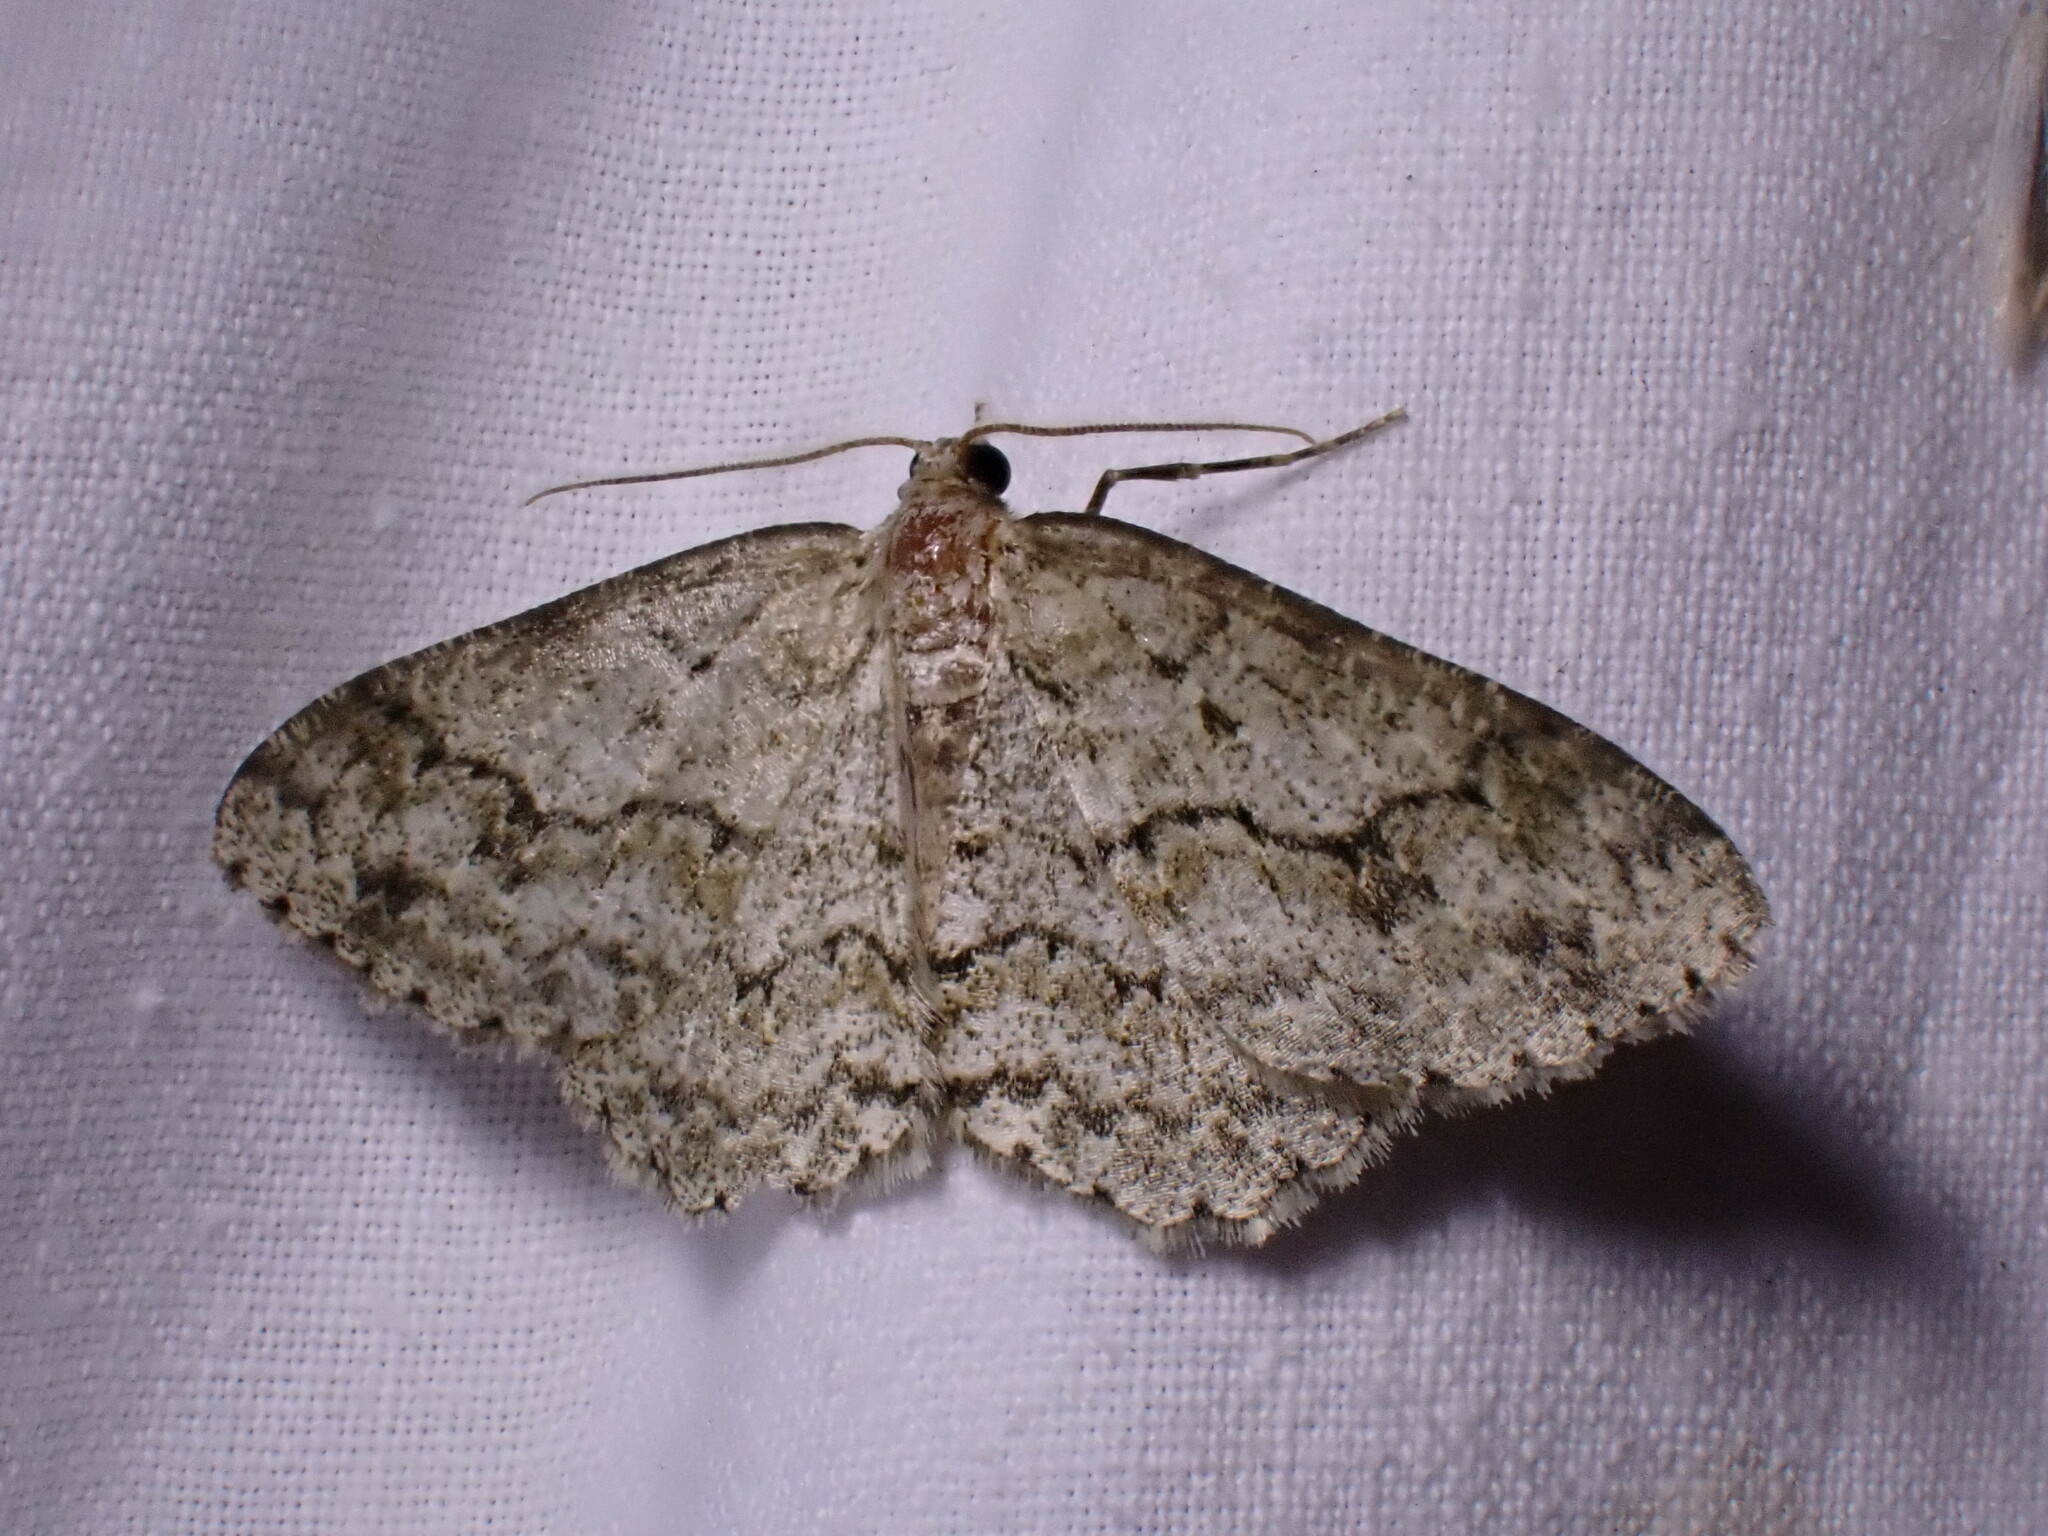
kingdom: Animalia
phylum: Arthropoda
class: Insecta
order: Lepidoptera
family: Geometridae
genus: Ectropis
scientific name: Ectropis crepuscularia
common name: Engrailed
